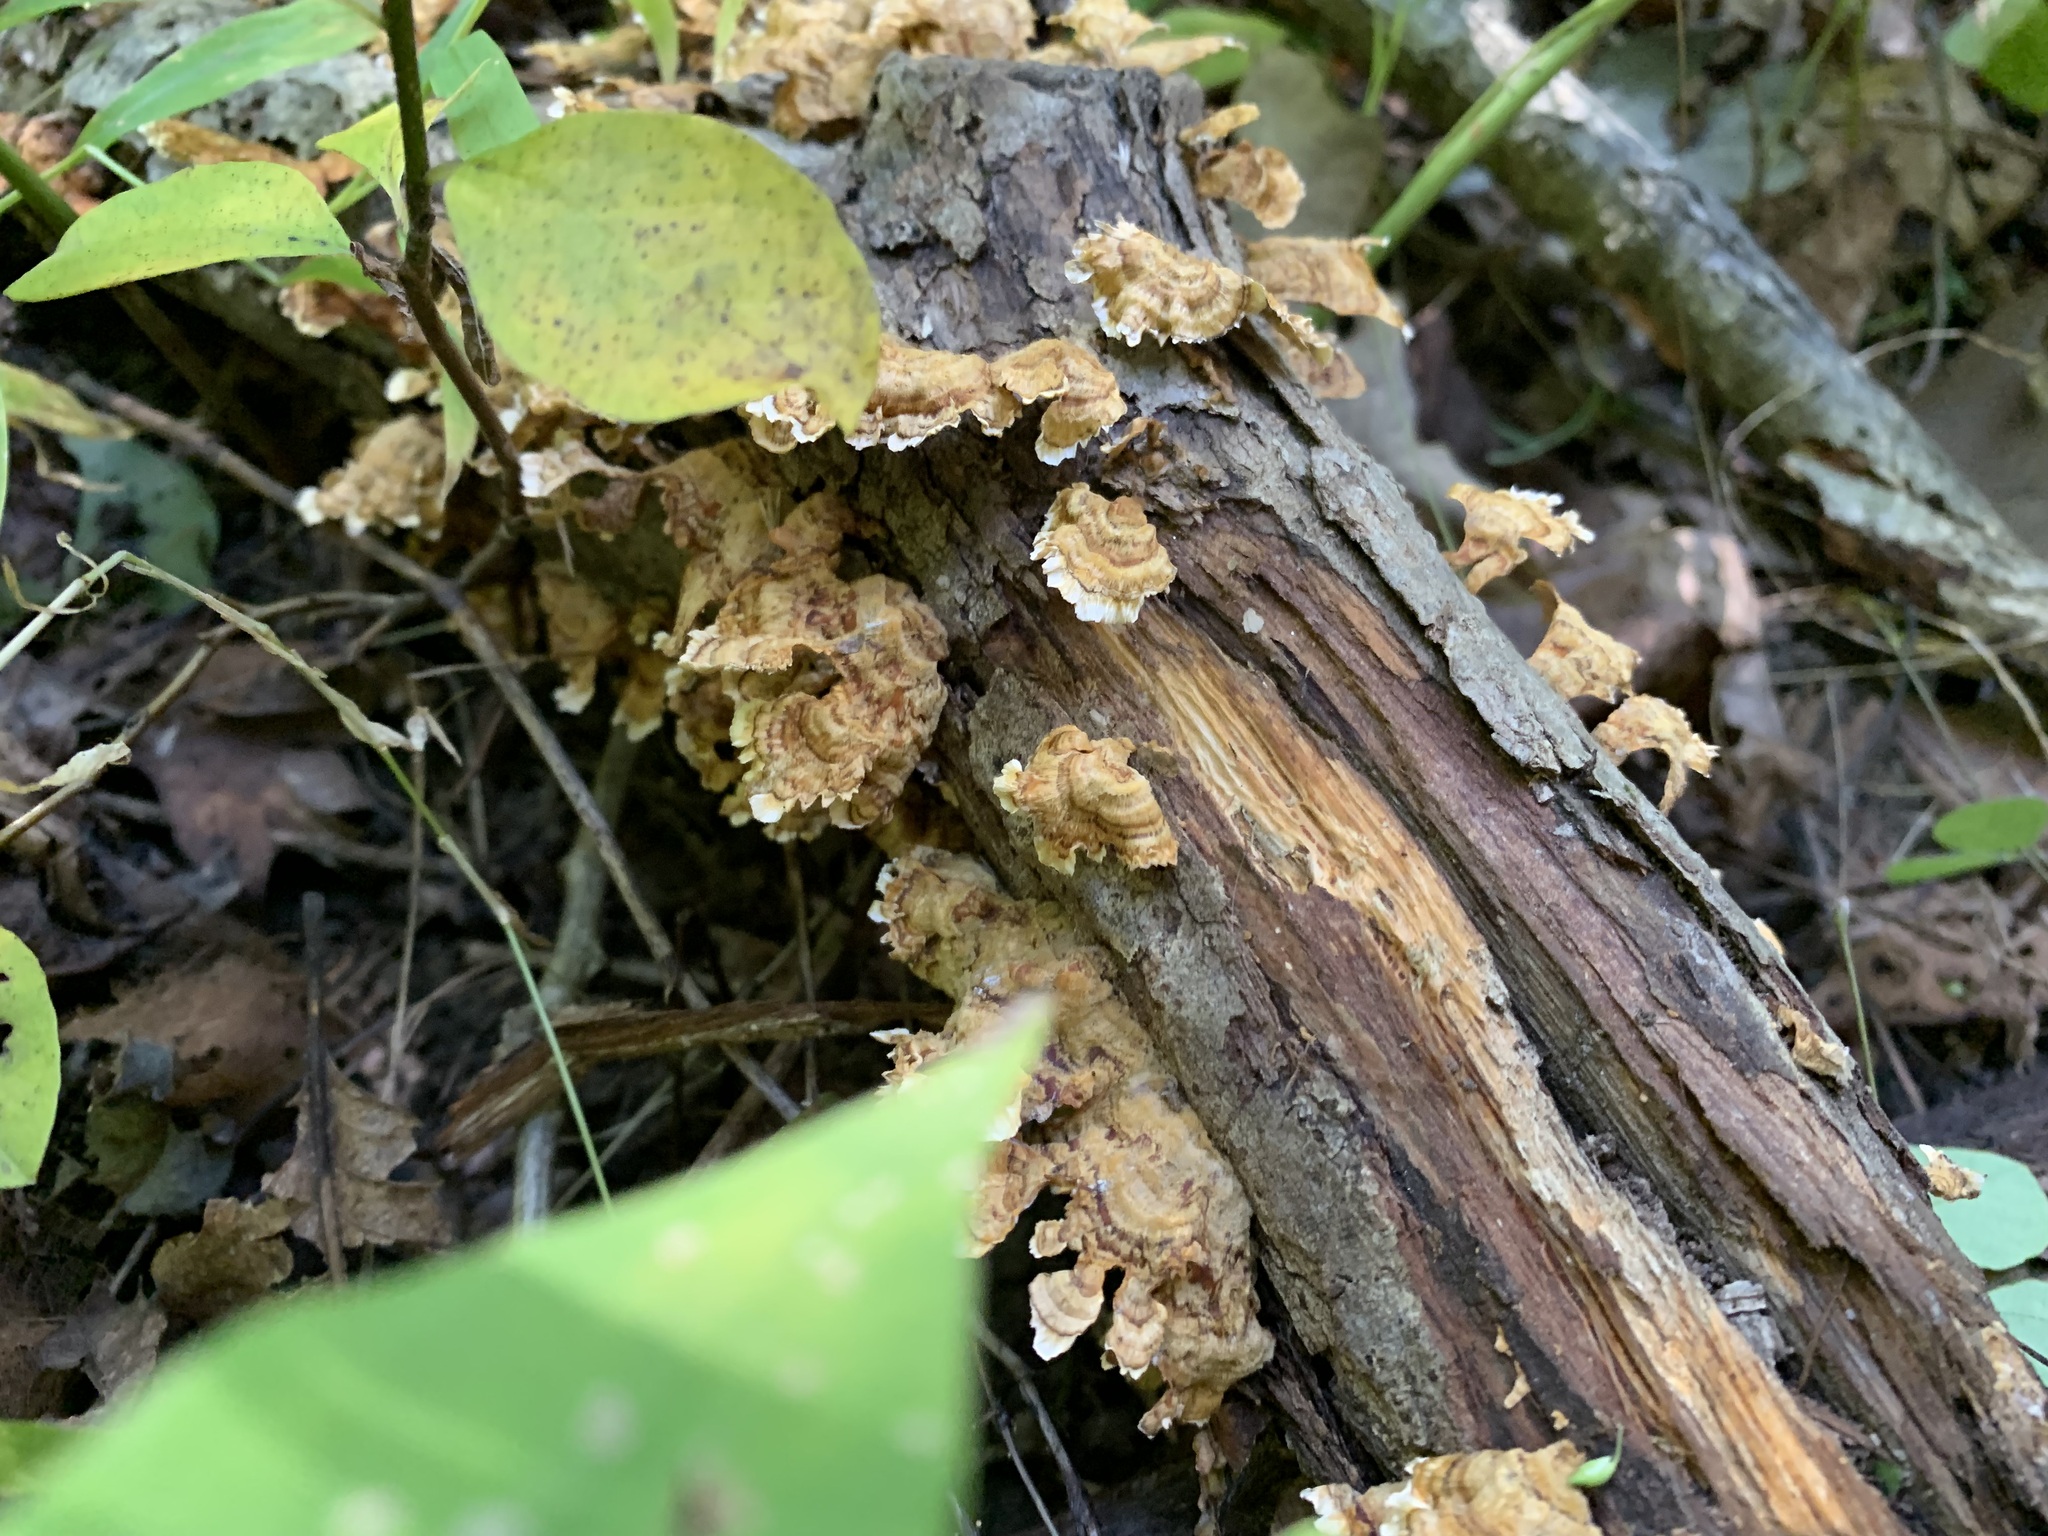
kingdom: Fungi
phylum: Basidiomycota
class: Agaricomycetes
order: Russulales
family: Stereaceae
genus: Stereum
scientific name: Stereum complicatum
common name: Crowded parchment
